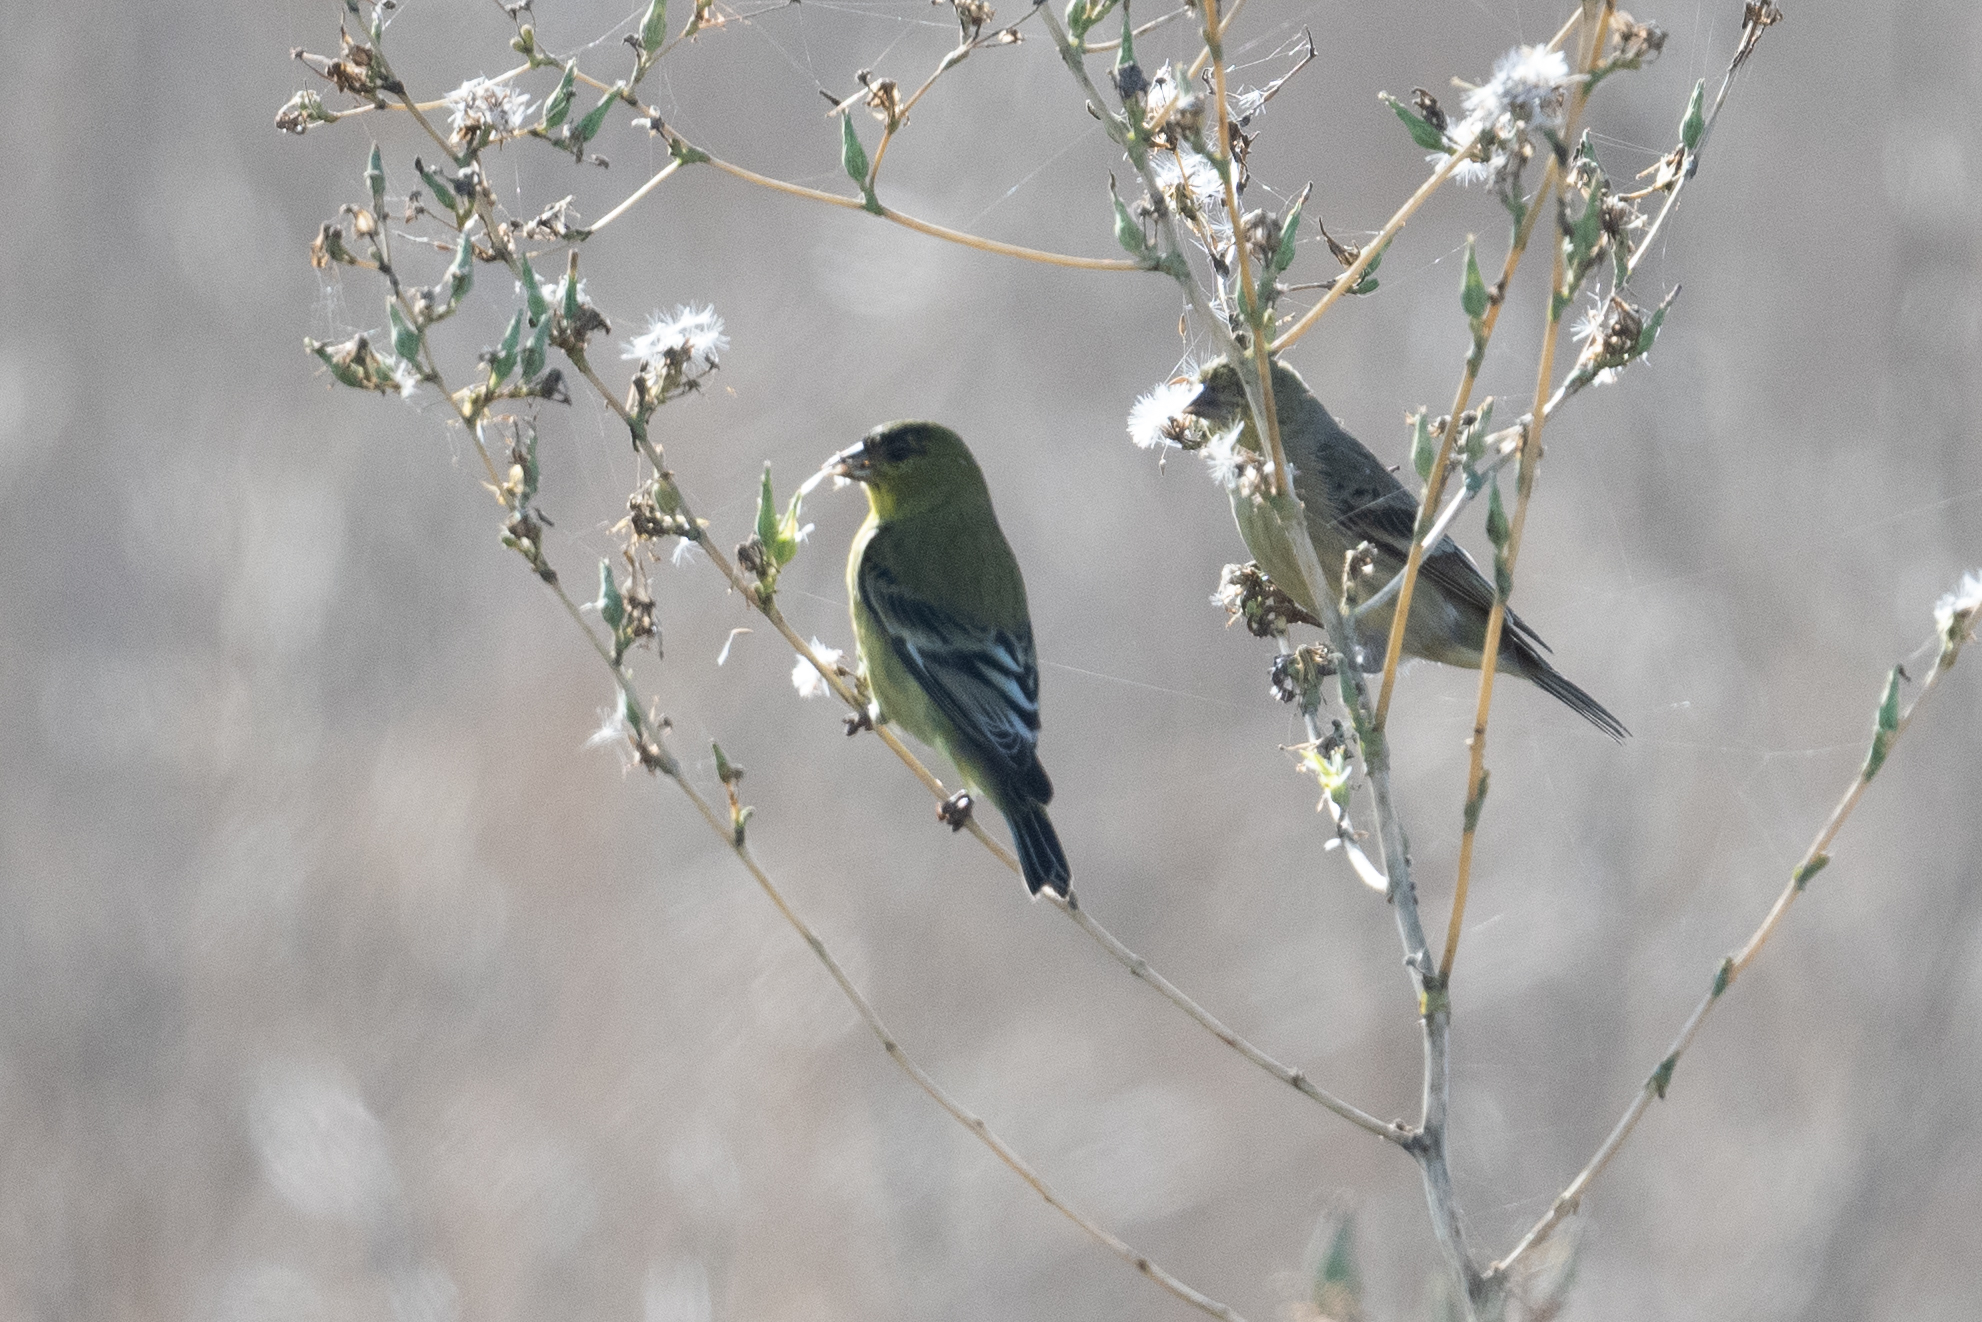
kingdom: Animalia
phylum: Chordata
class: Aves
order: Passeriformes
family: Fringillidae
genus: Spinus
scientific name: Spinus psaltria
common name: Lesser goldfinch
